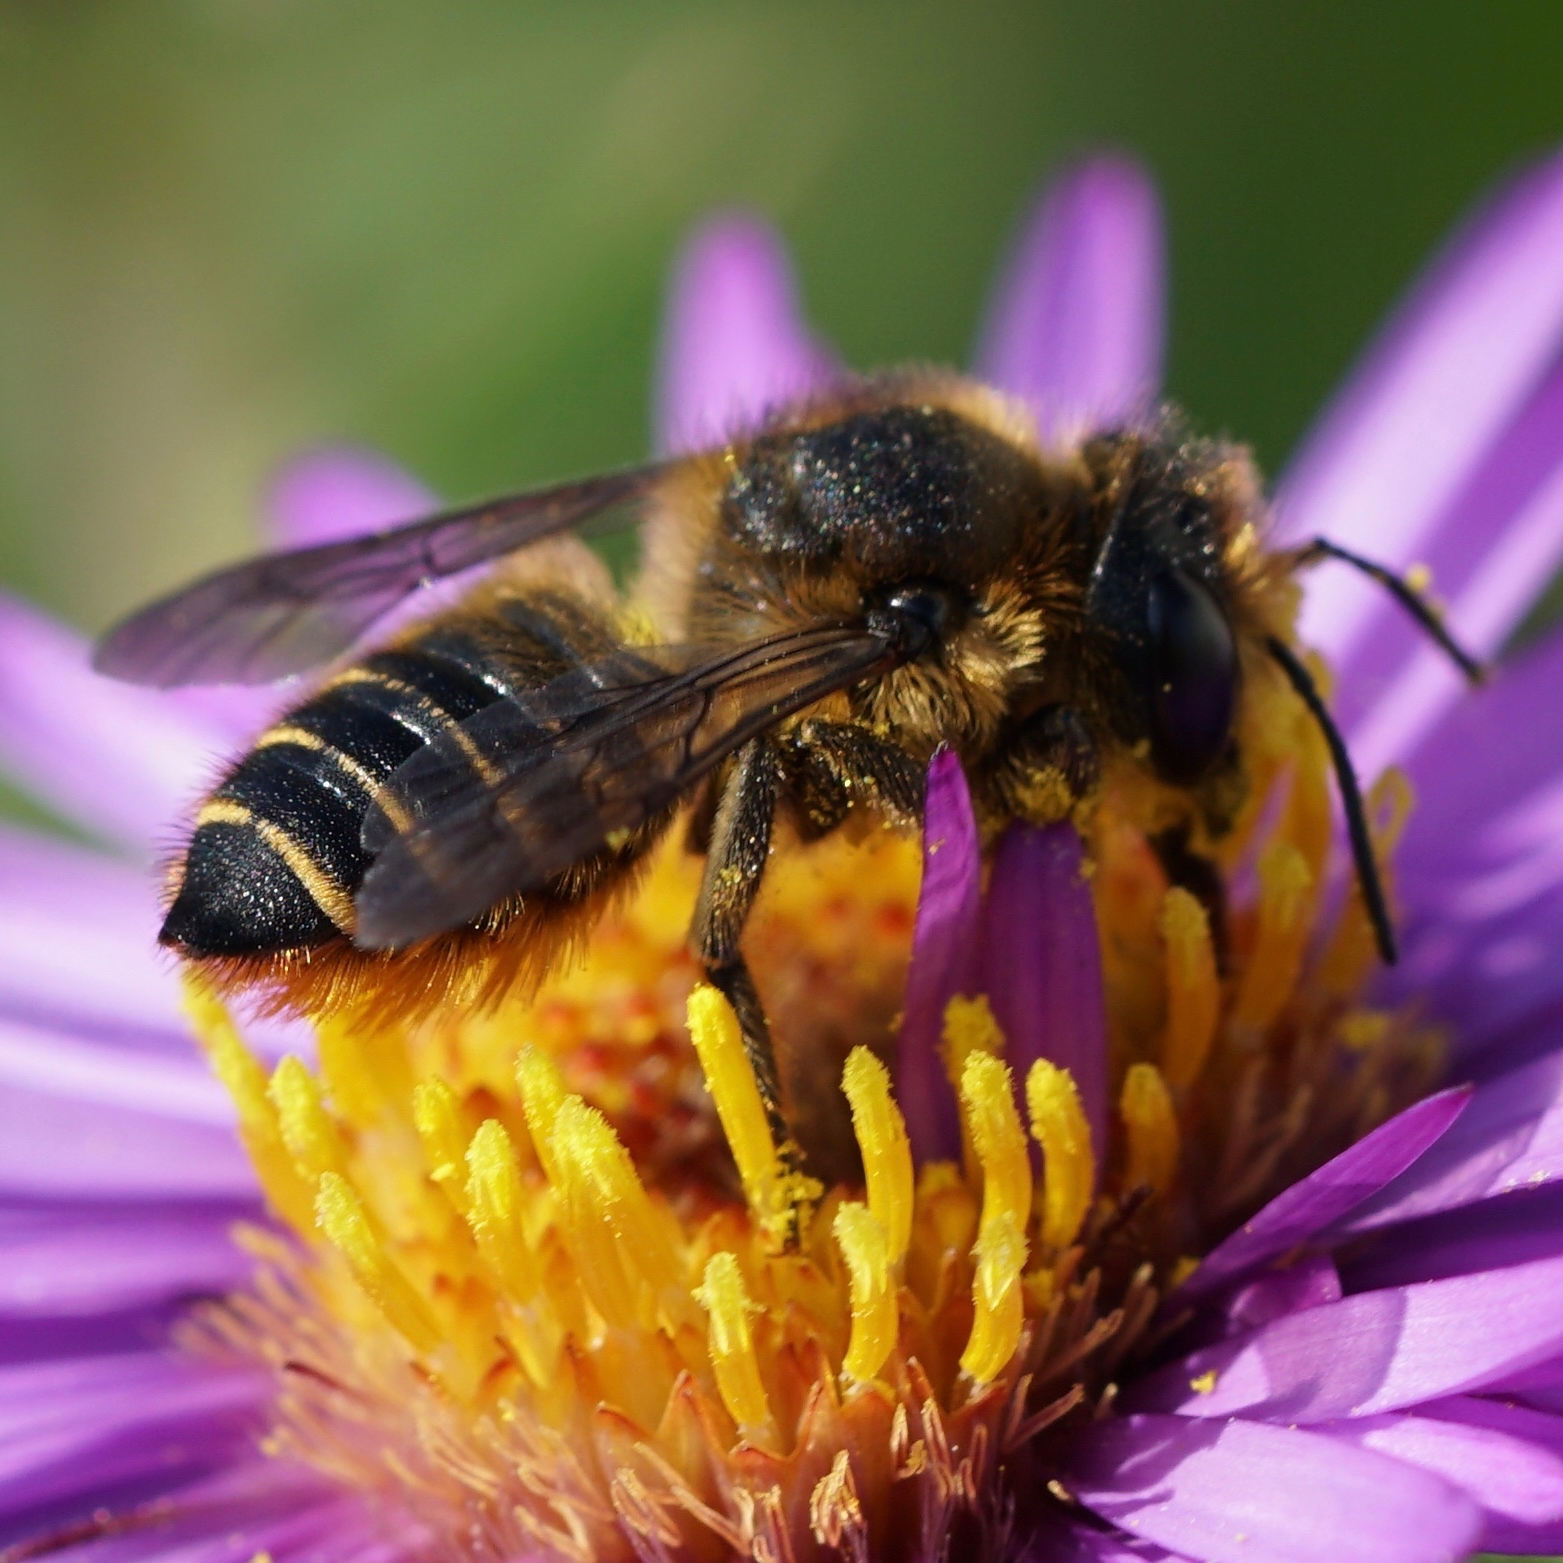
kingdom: Animalia
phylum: Arthropoda
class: Insecta
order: Hymenoptera
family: Megachilidae
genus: Megachile
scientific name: Megachile centuncularis
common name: Patchwork leafcutter bee
